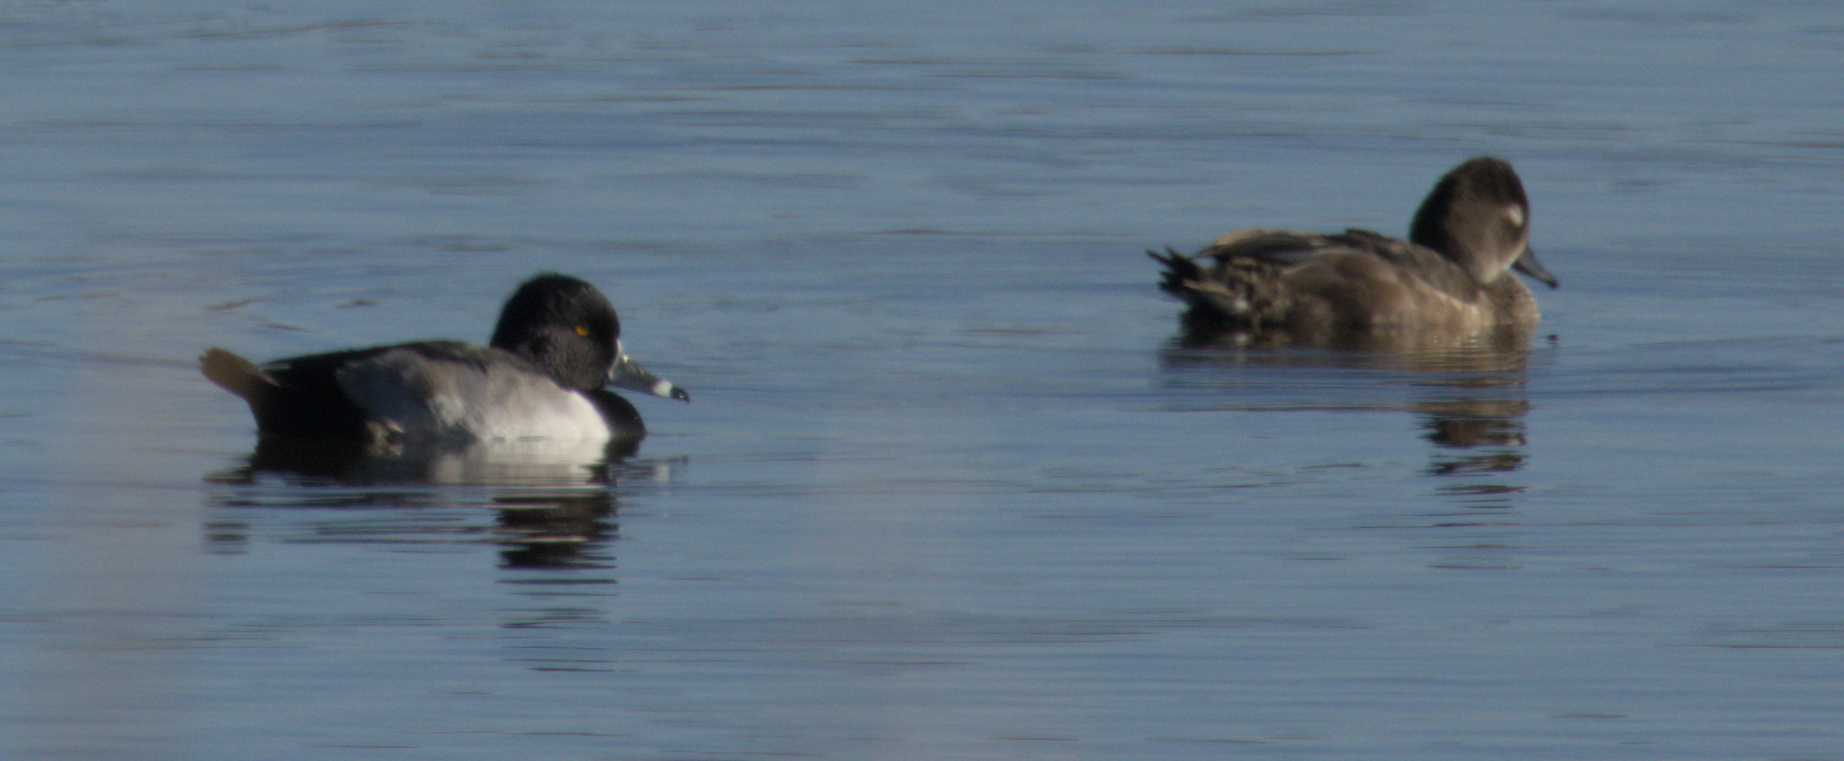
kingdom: Animalia
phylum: Chordata
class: Aves
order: Anseriformes
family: Anatidae
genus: Aythya
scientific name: Aythya collaris
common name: Ring-necked duck
